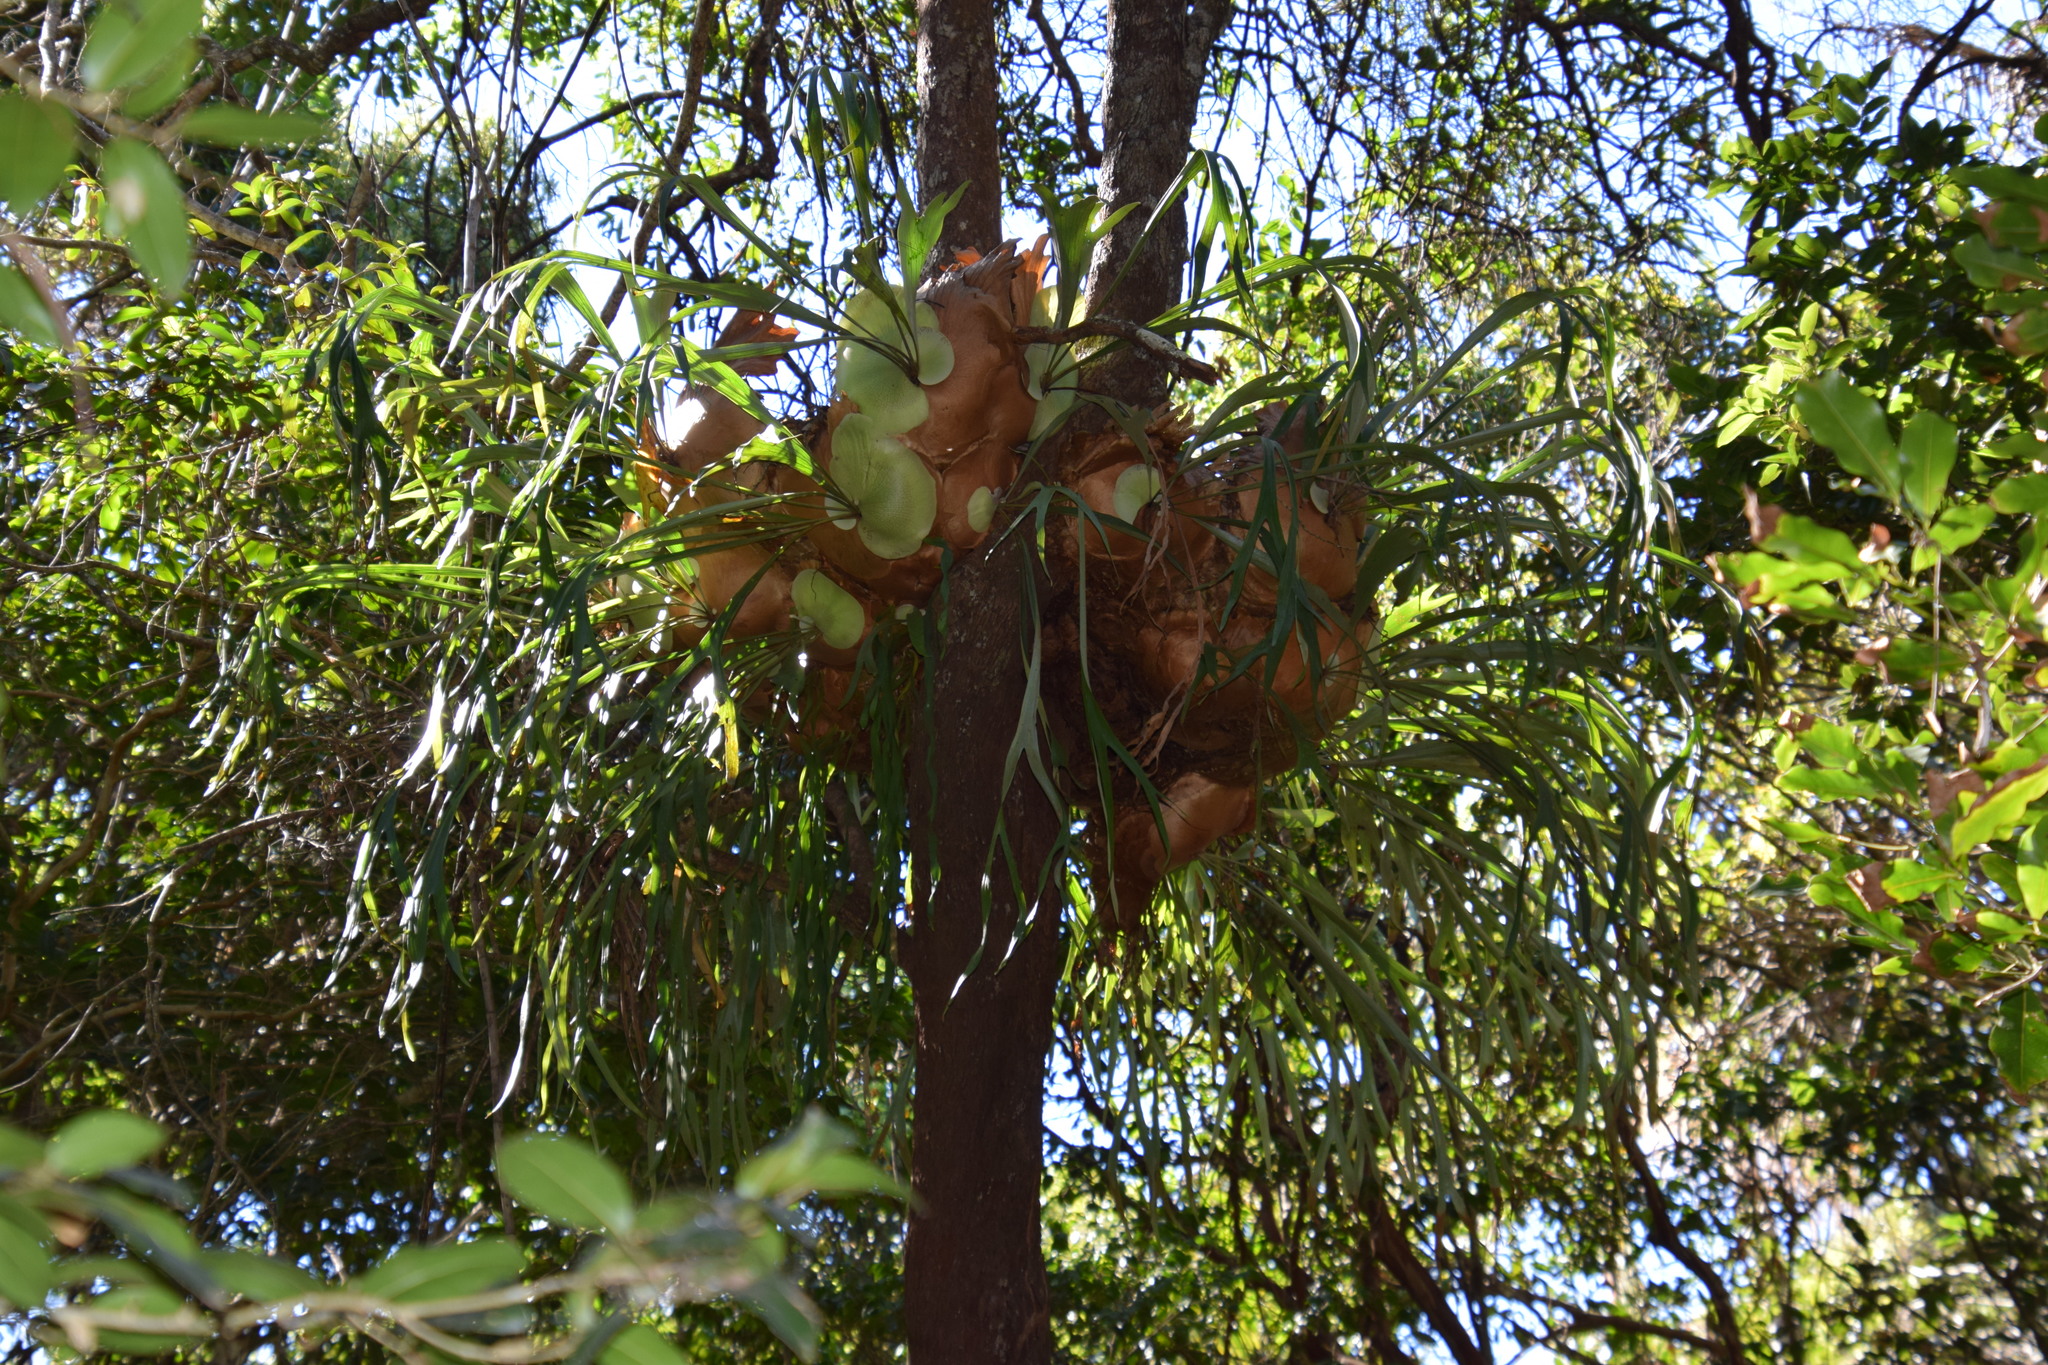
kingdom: Plantae
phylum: Tracheophyta
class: Polypodiopsida
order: Polypodiales
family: Polypodiaceae
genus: Platycerium
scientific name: Platycerium bifurcatum
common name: Elkhorn fern
